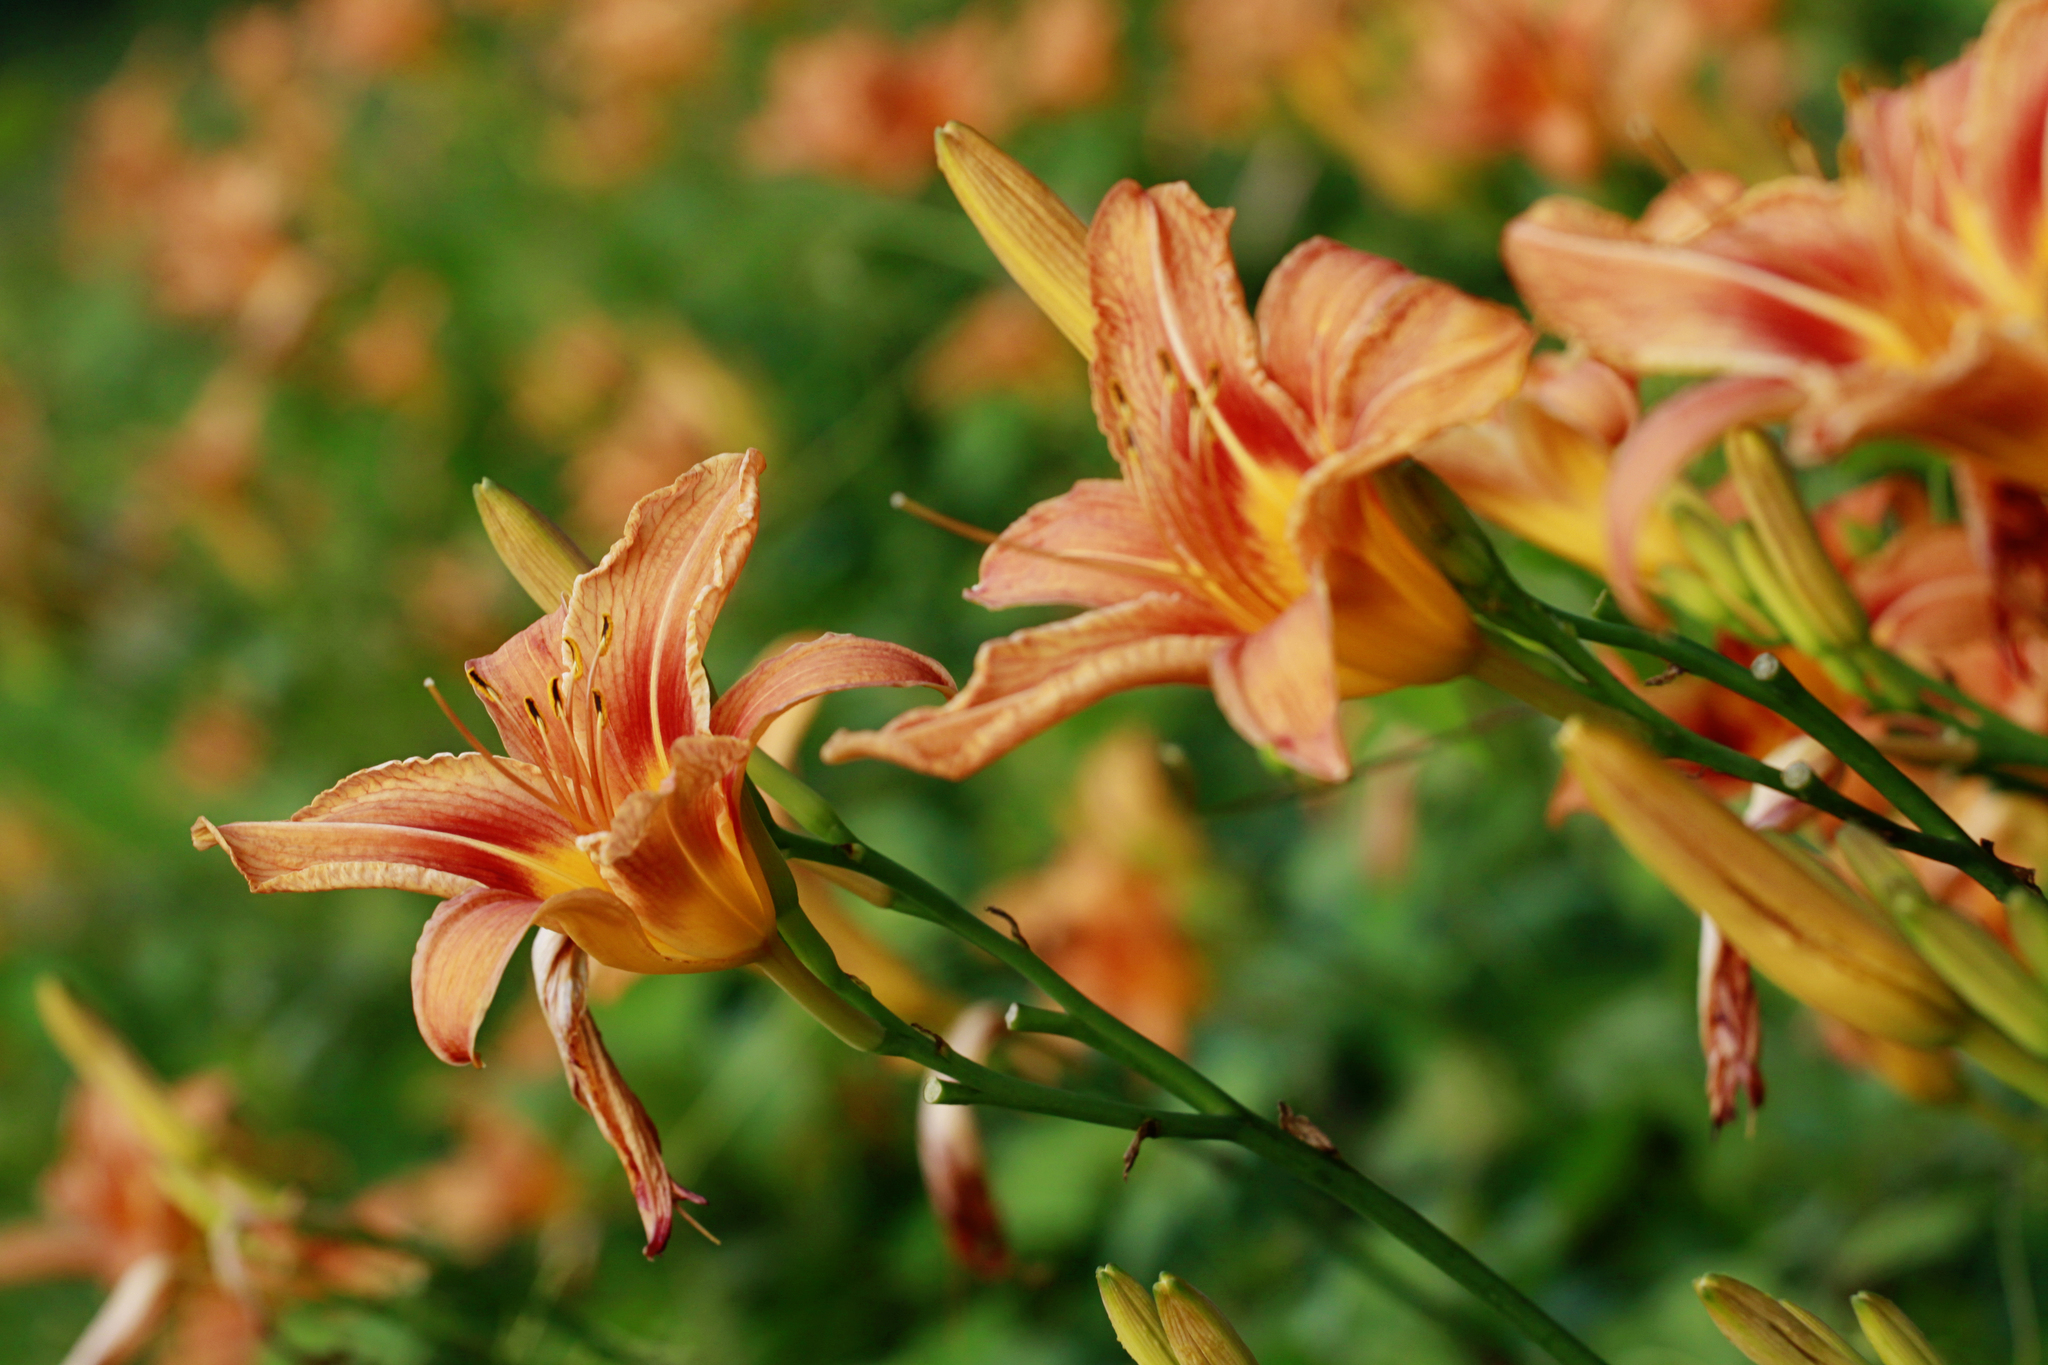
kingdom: Plantae
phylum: Tracheophyta
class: Liliopsida
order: Asparagales
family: Asphodelaceae
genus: Hemerocallis
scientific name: Hemerocallis fulva
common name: Orange day-lily
